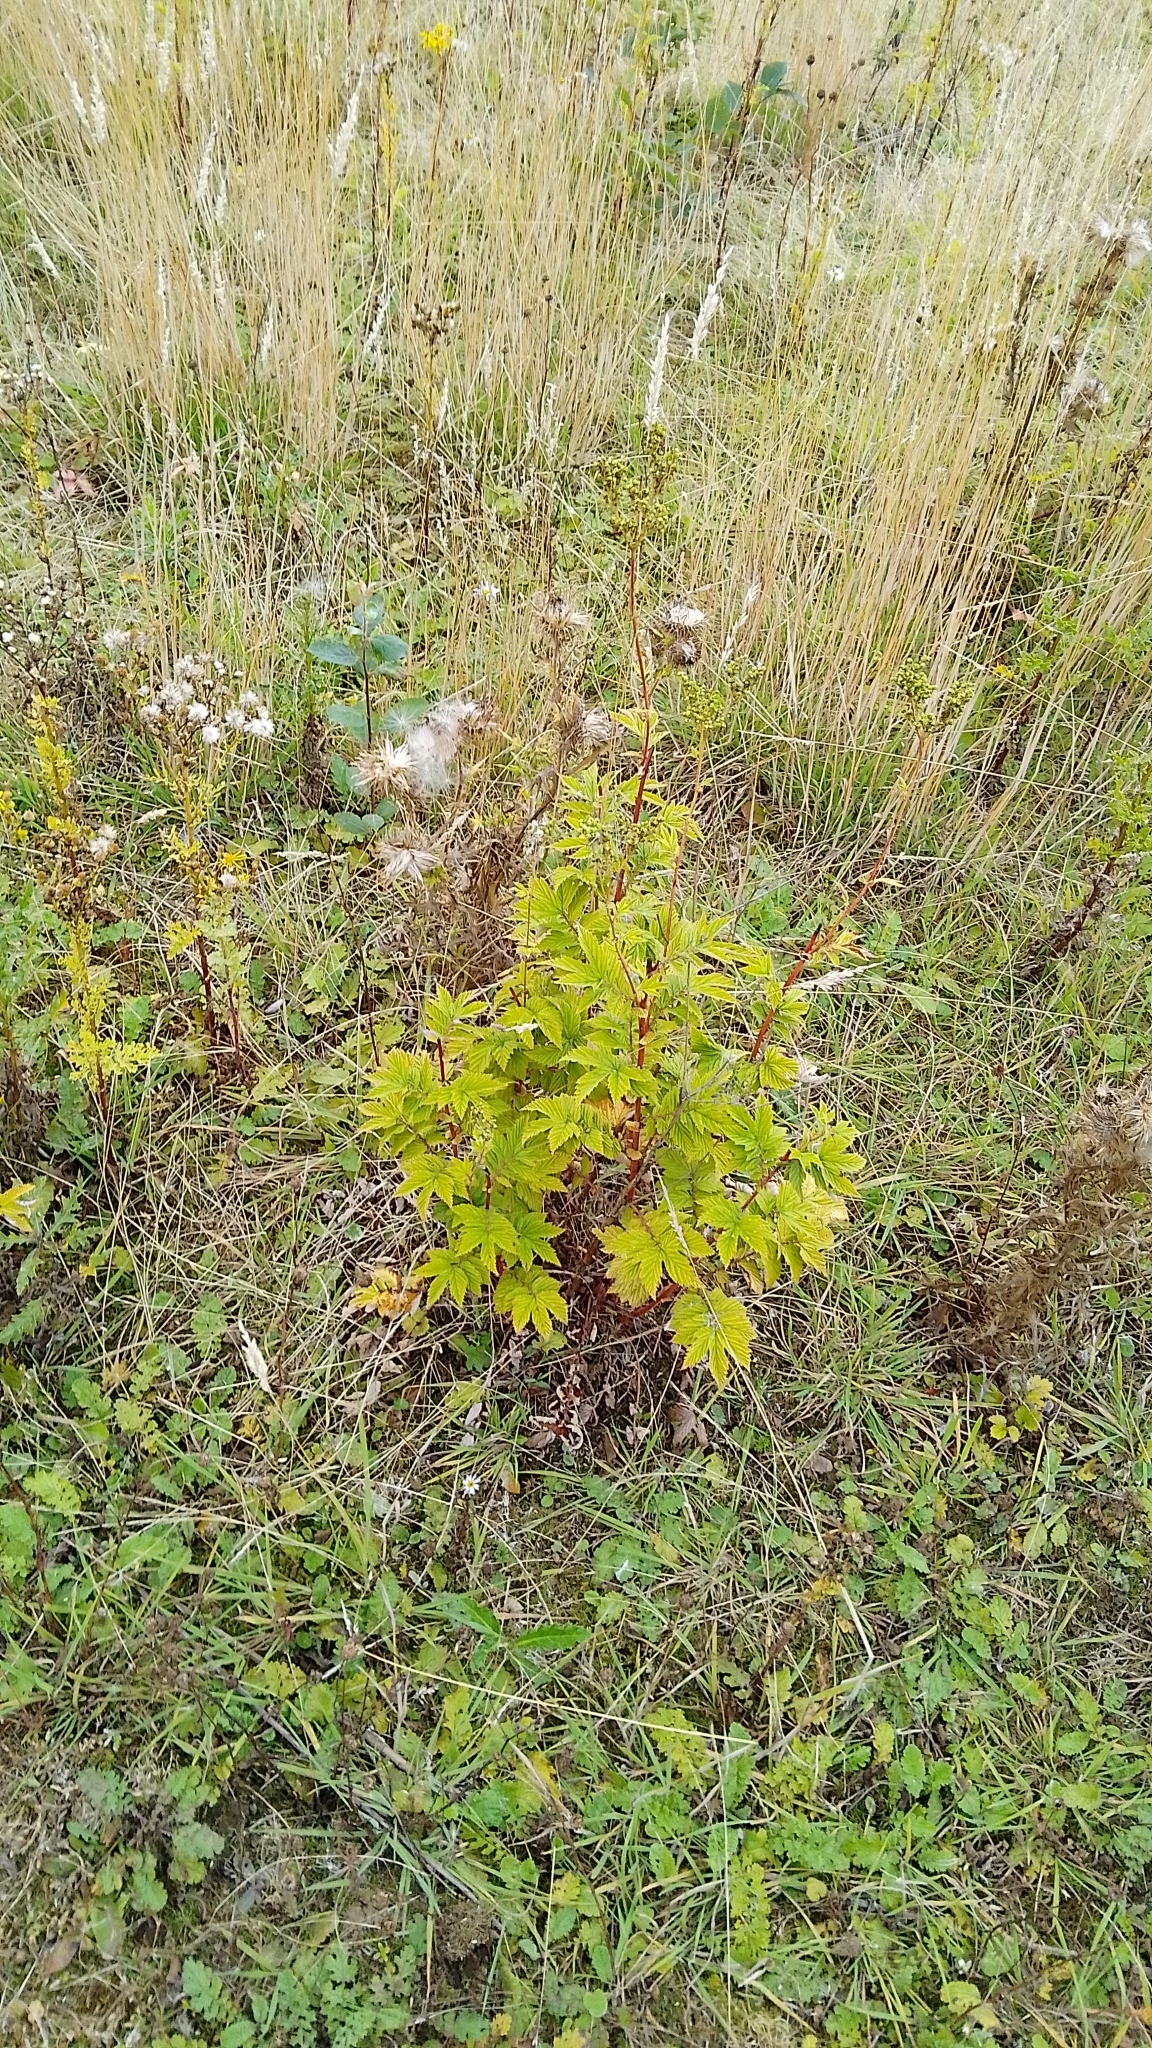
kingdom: Plantae
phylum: Tracheophyta
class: Magnoliopsida
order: Rosales
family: Rosaceae
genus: Filipendula
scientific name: Filipendula ulmaria
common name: Meadowsweet
